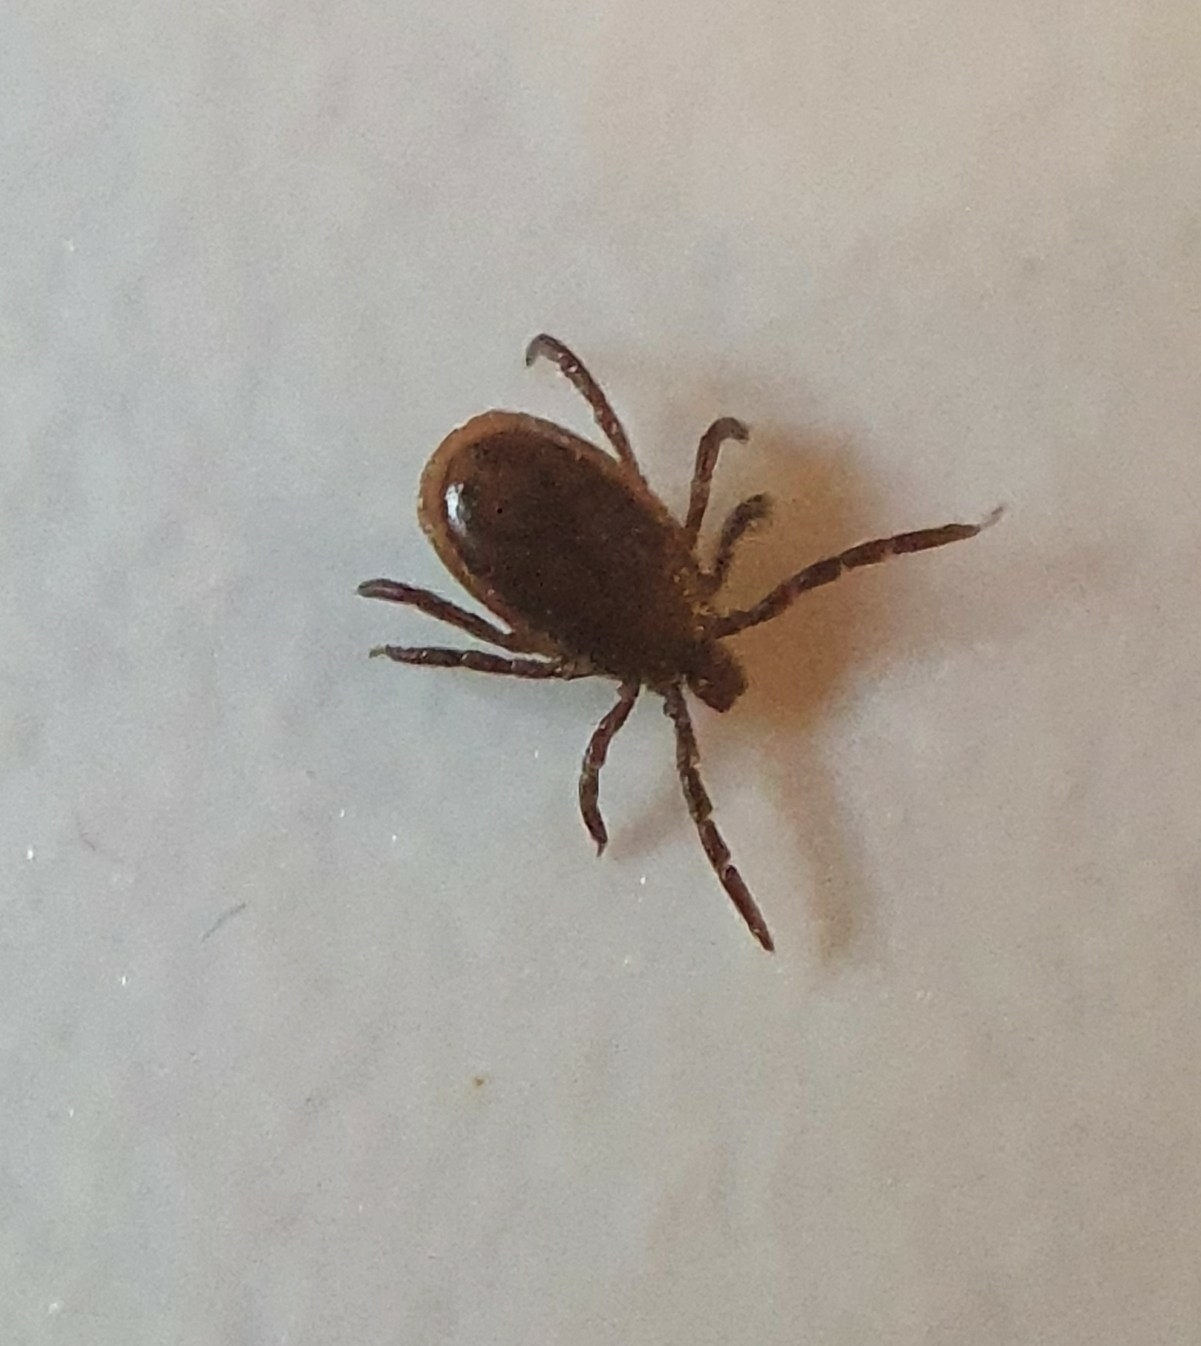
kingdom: Animalia
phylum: Arthropoda
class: Arachnida
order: Ixodida
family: Ixodidae
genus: Ixodes
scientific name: Ixodes ricinus
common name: Castor bean tick
